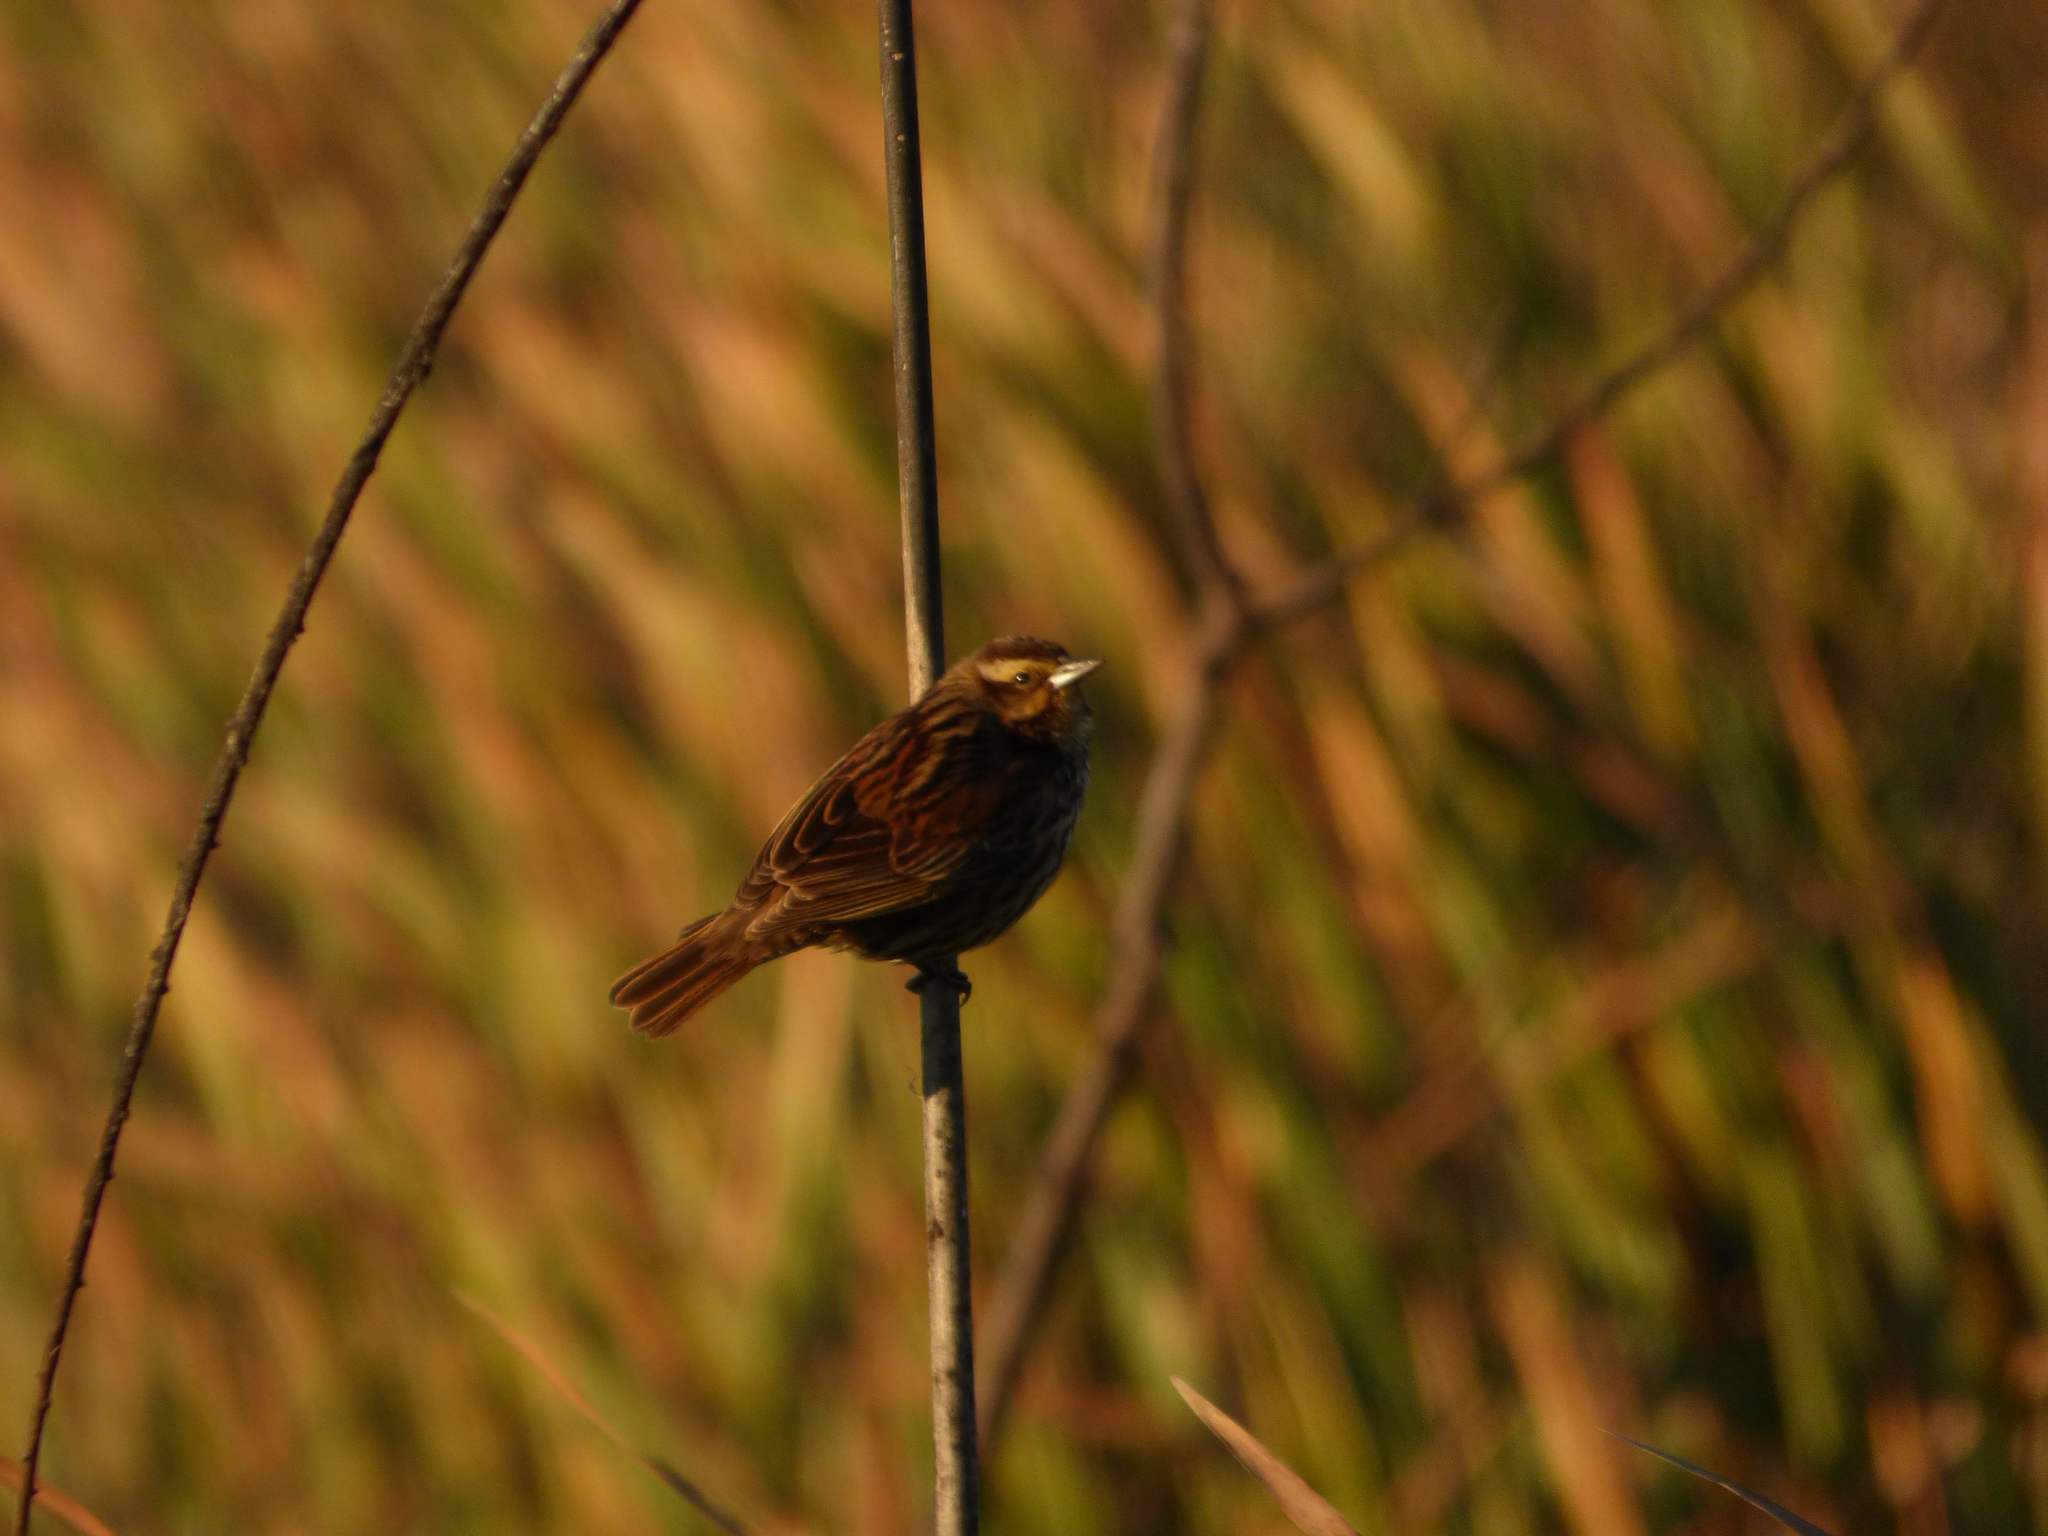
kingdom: Animalia
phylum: Chordata
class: Aves
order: Passeriformes
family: Icteridae
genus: Agelasticus
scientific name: Agelasticus thilius
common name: Yellow-winged blackbird
